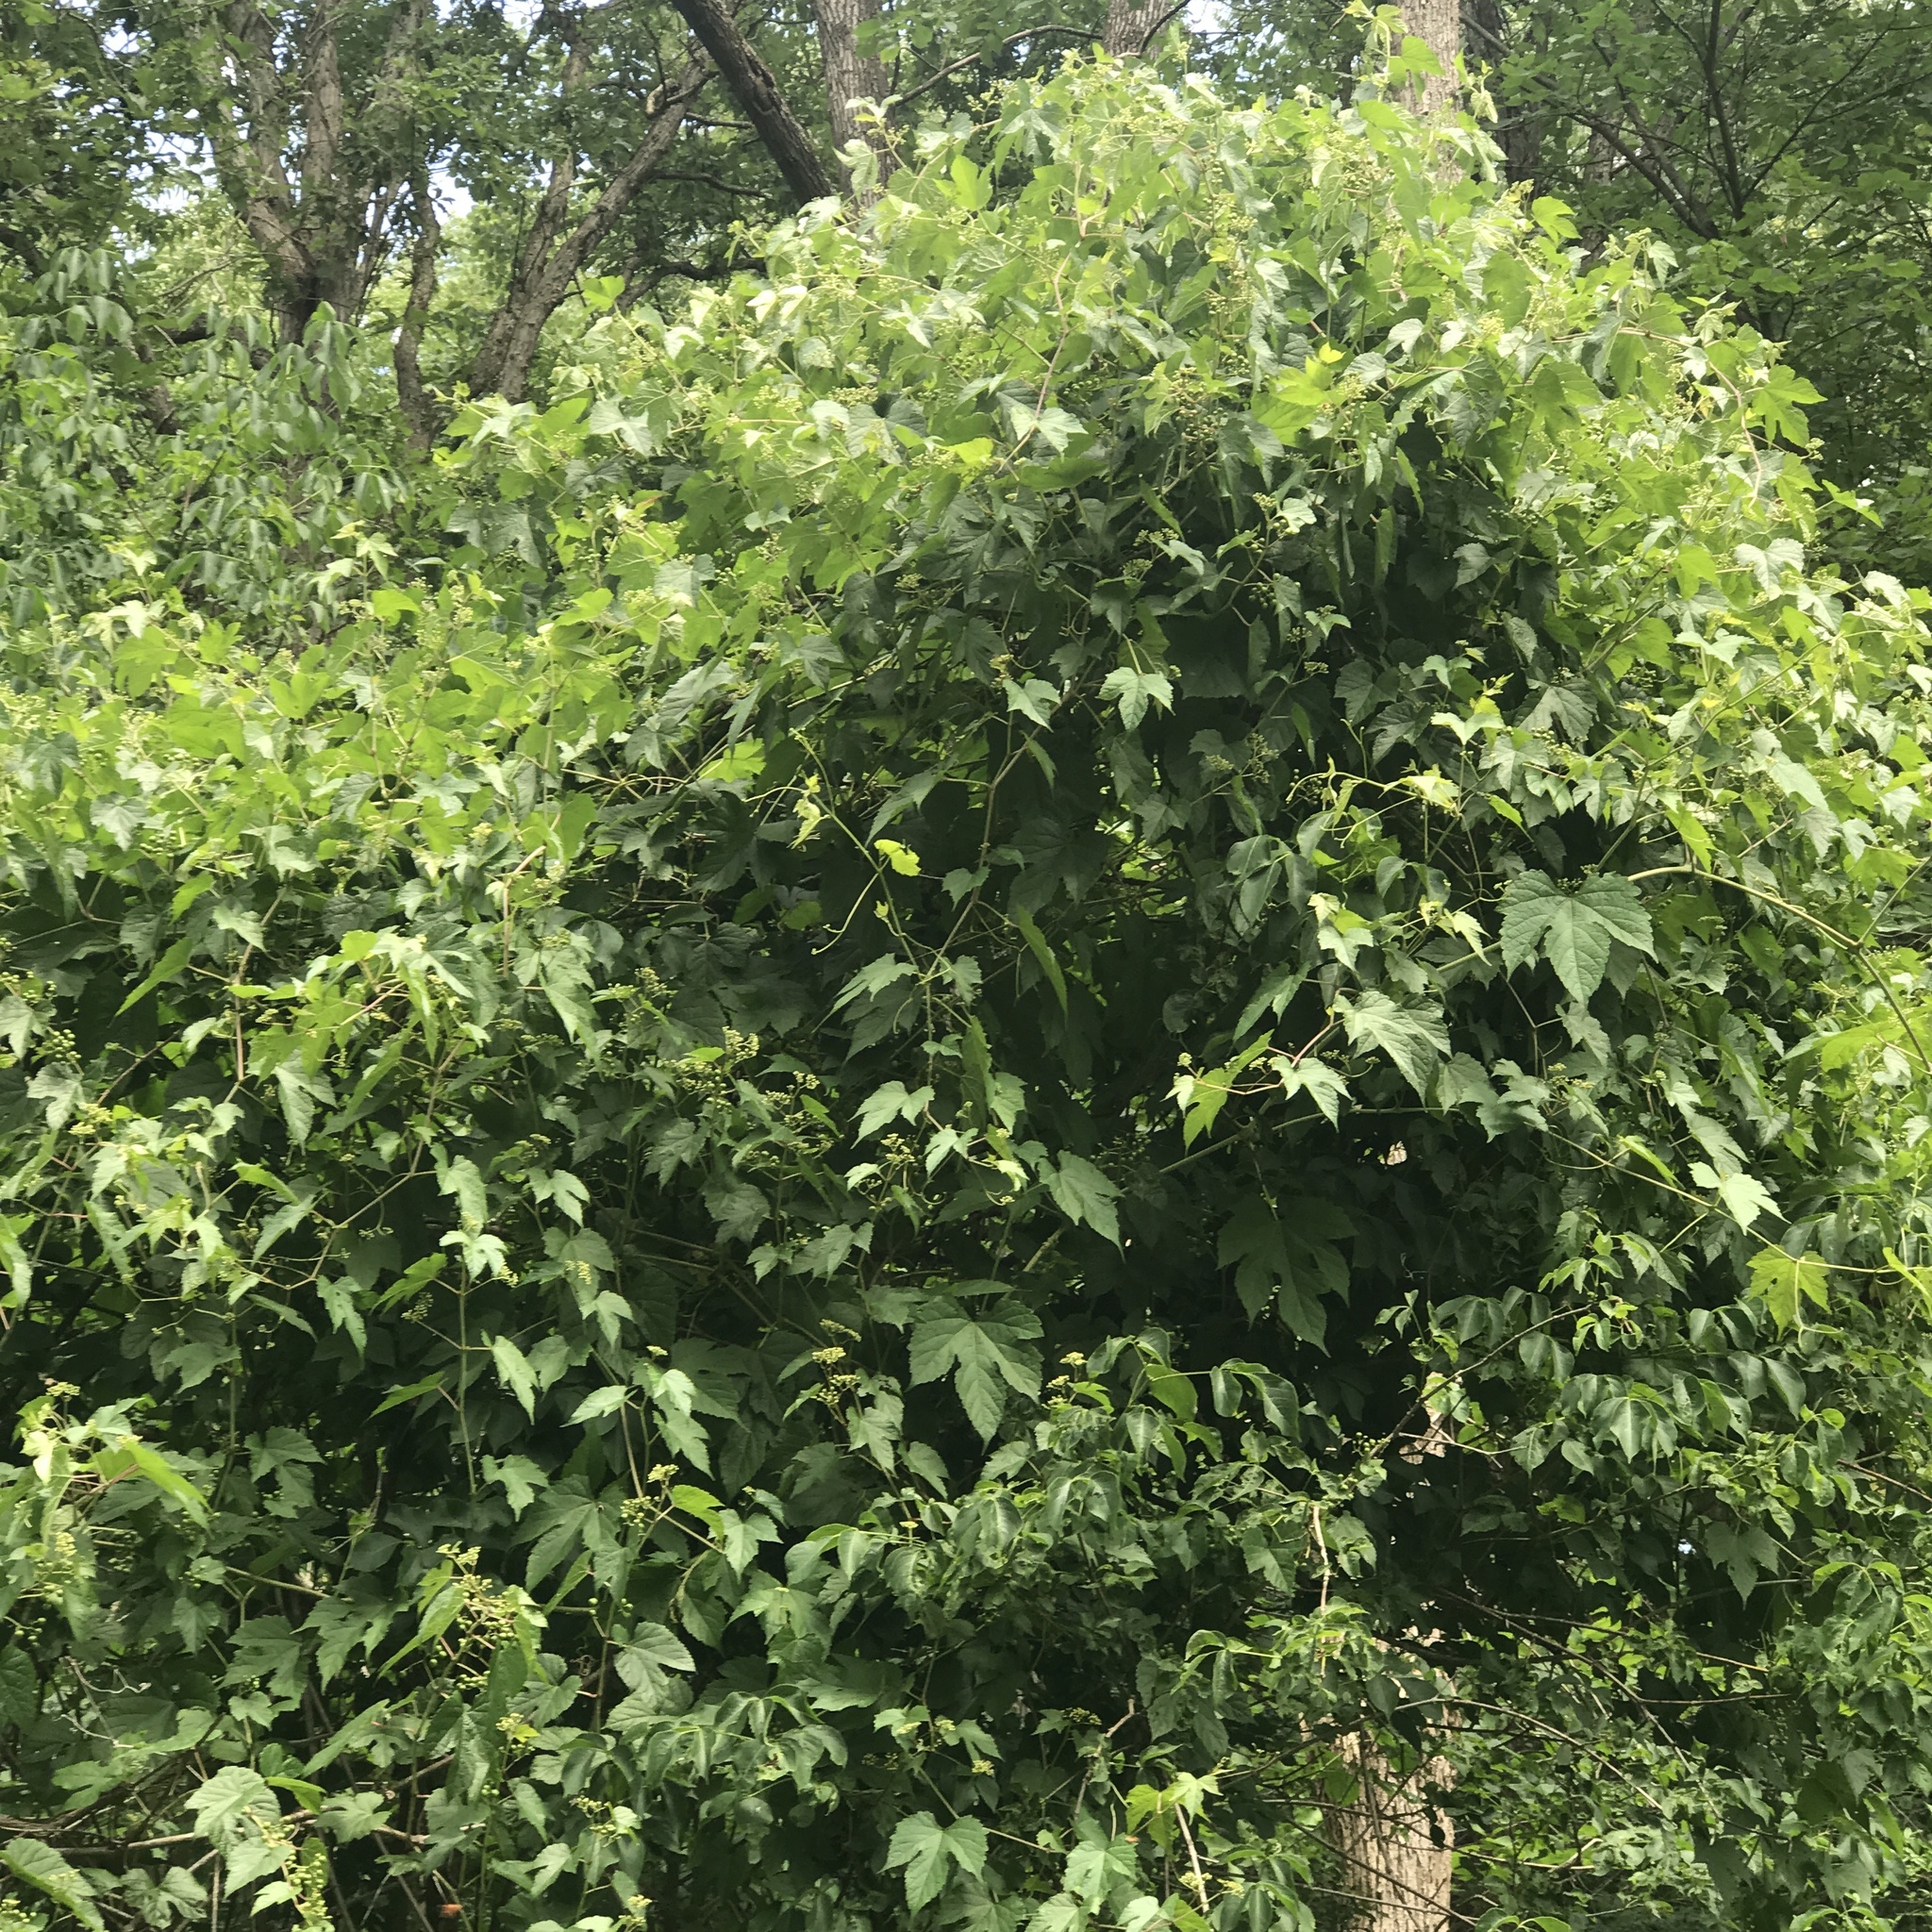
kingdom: Plantae
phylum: Tracheophyta
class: Magnoliopsida
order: Vitales
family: Vitaceae
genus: Ampelopsis
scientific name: Ampelopsis glandulosa
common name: Amur peppervine
